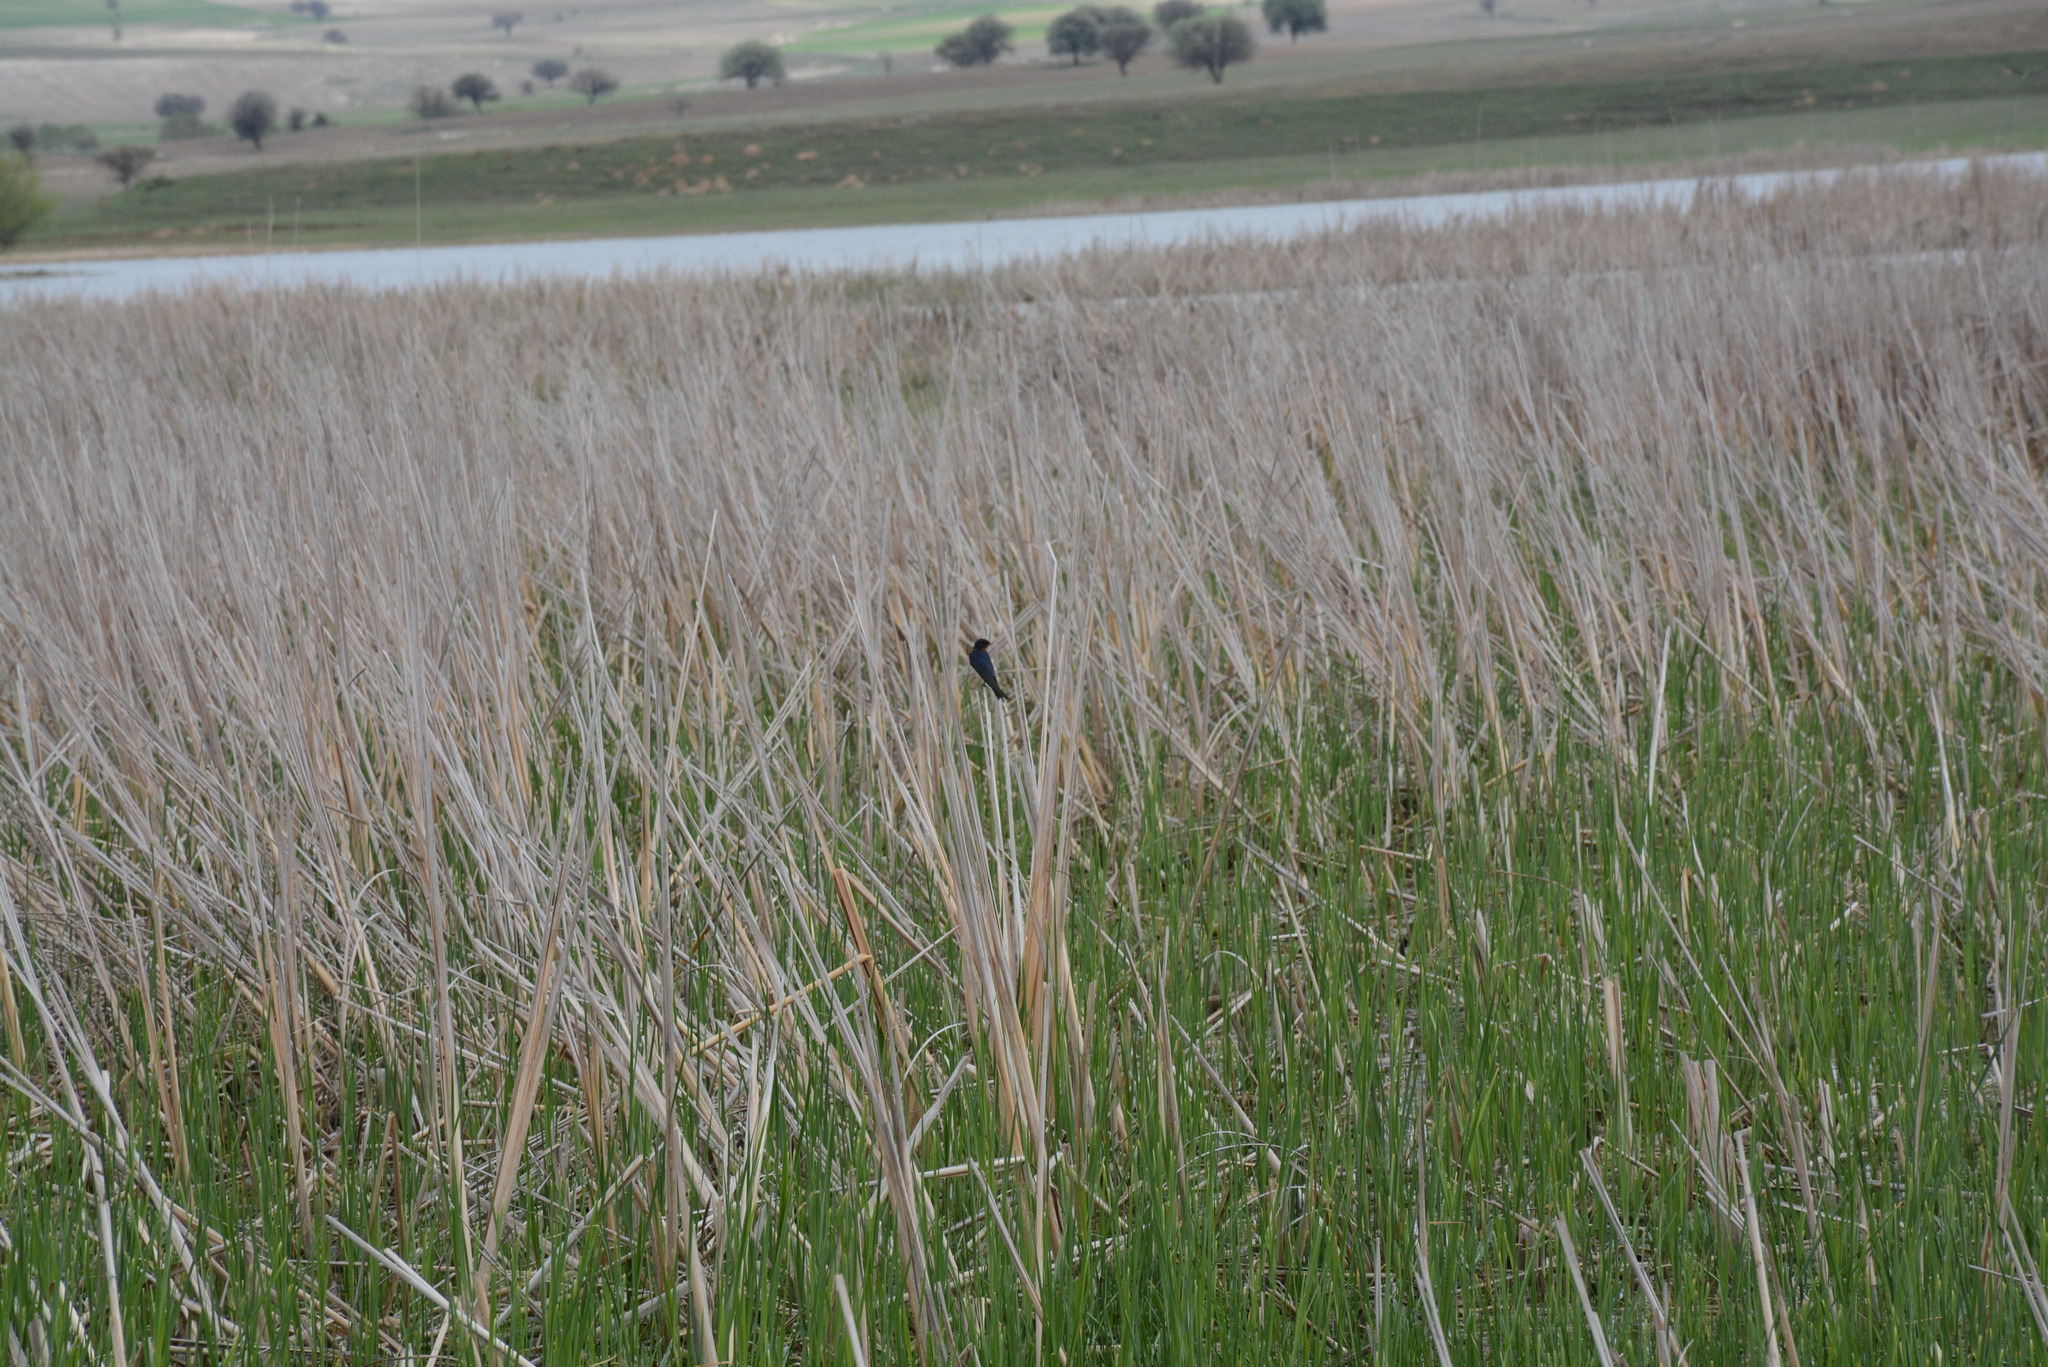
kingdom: Animalia
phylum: Chordata
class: Aves
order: Passeriformes
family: Hirundinidae
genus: Hirundo
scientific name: Hirundo rustica
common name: Barn swallow
